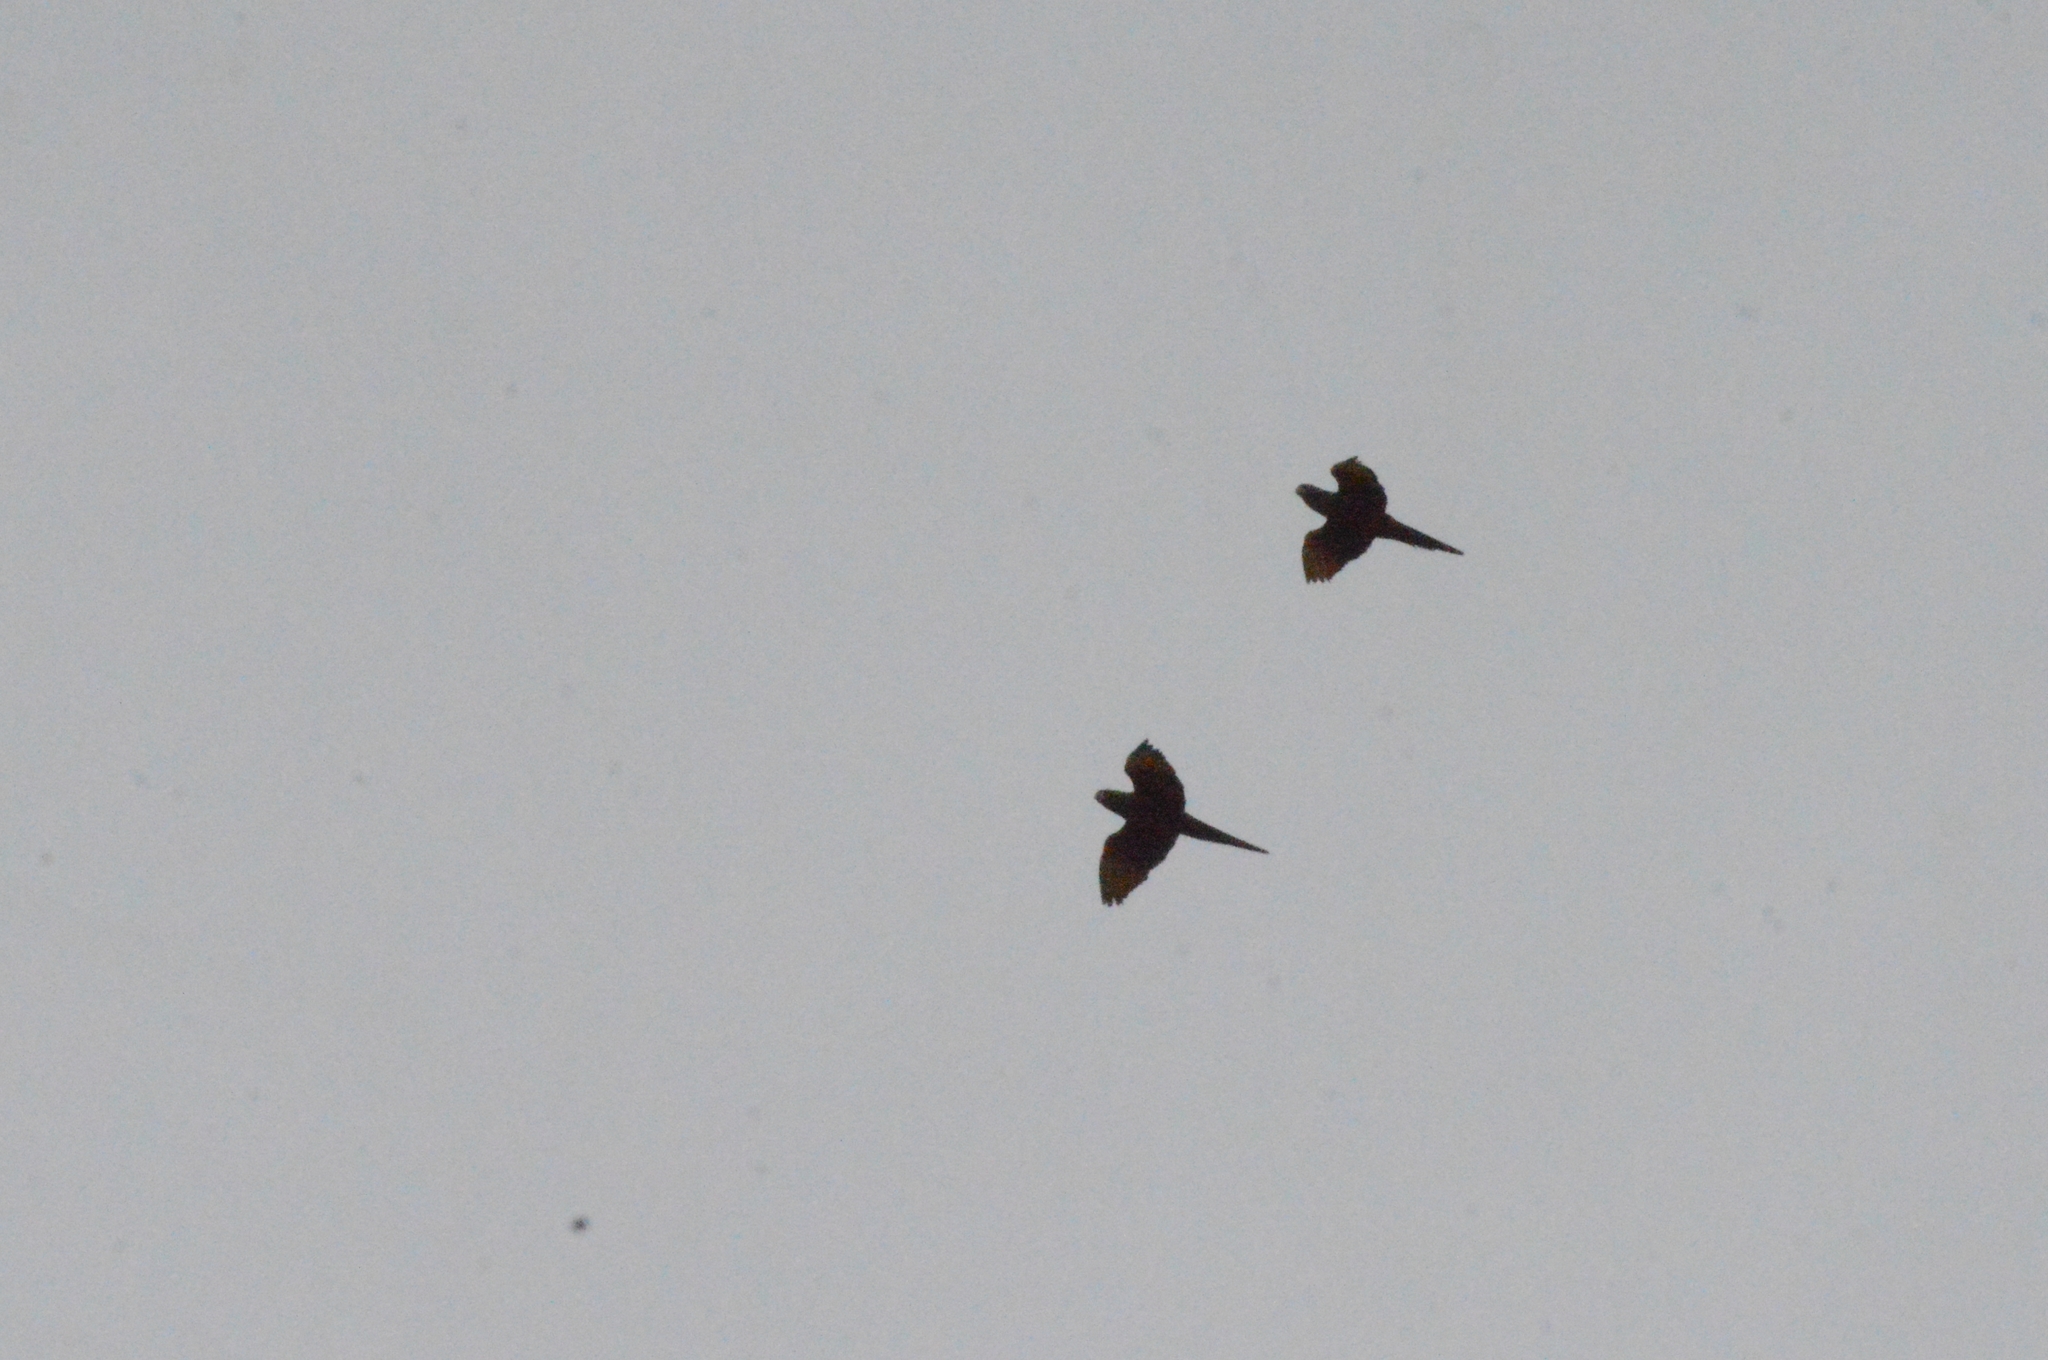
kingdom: Animalia
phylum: Chordata
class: Aves
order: Psittaciformes
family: Psittacidae
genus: Aratinga
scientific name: Aratinga leucophthalma
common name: White-eyed parakeet
